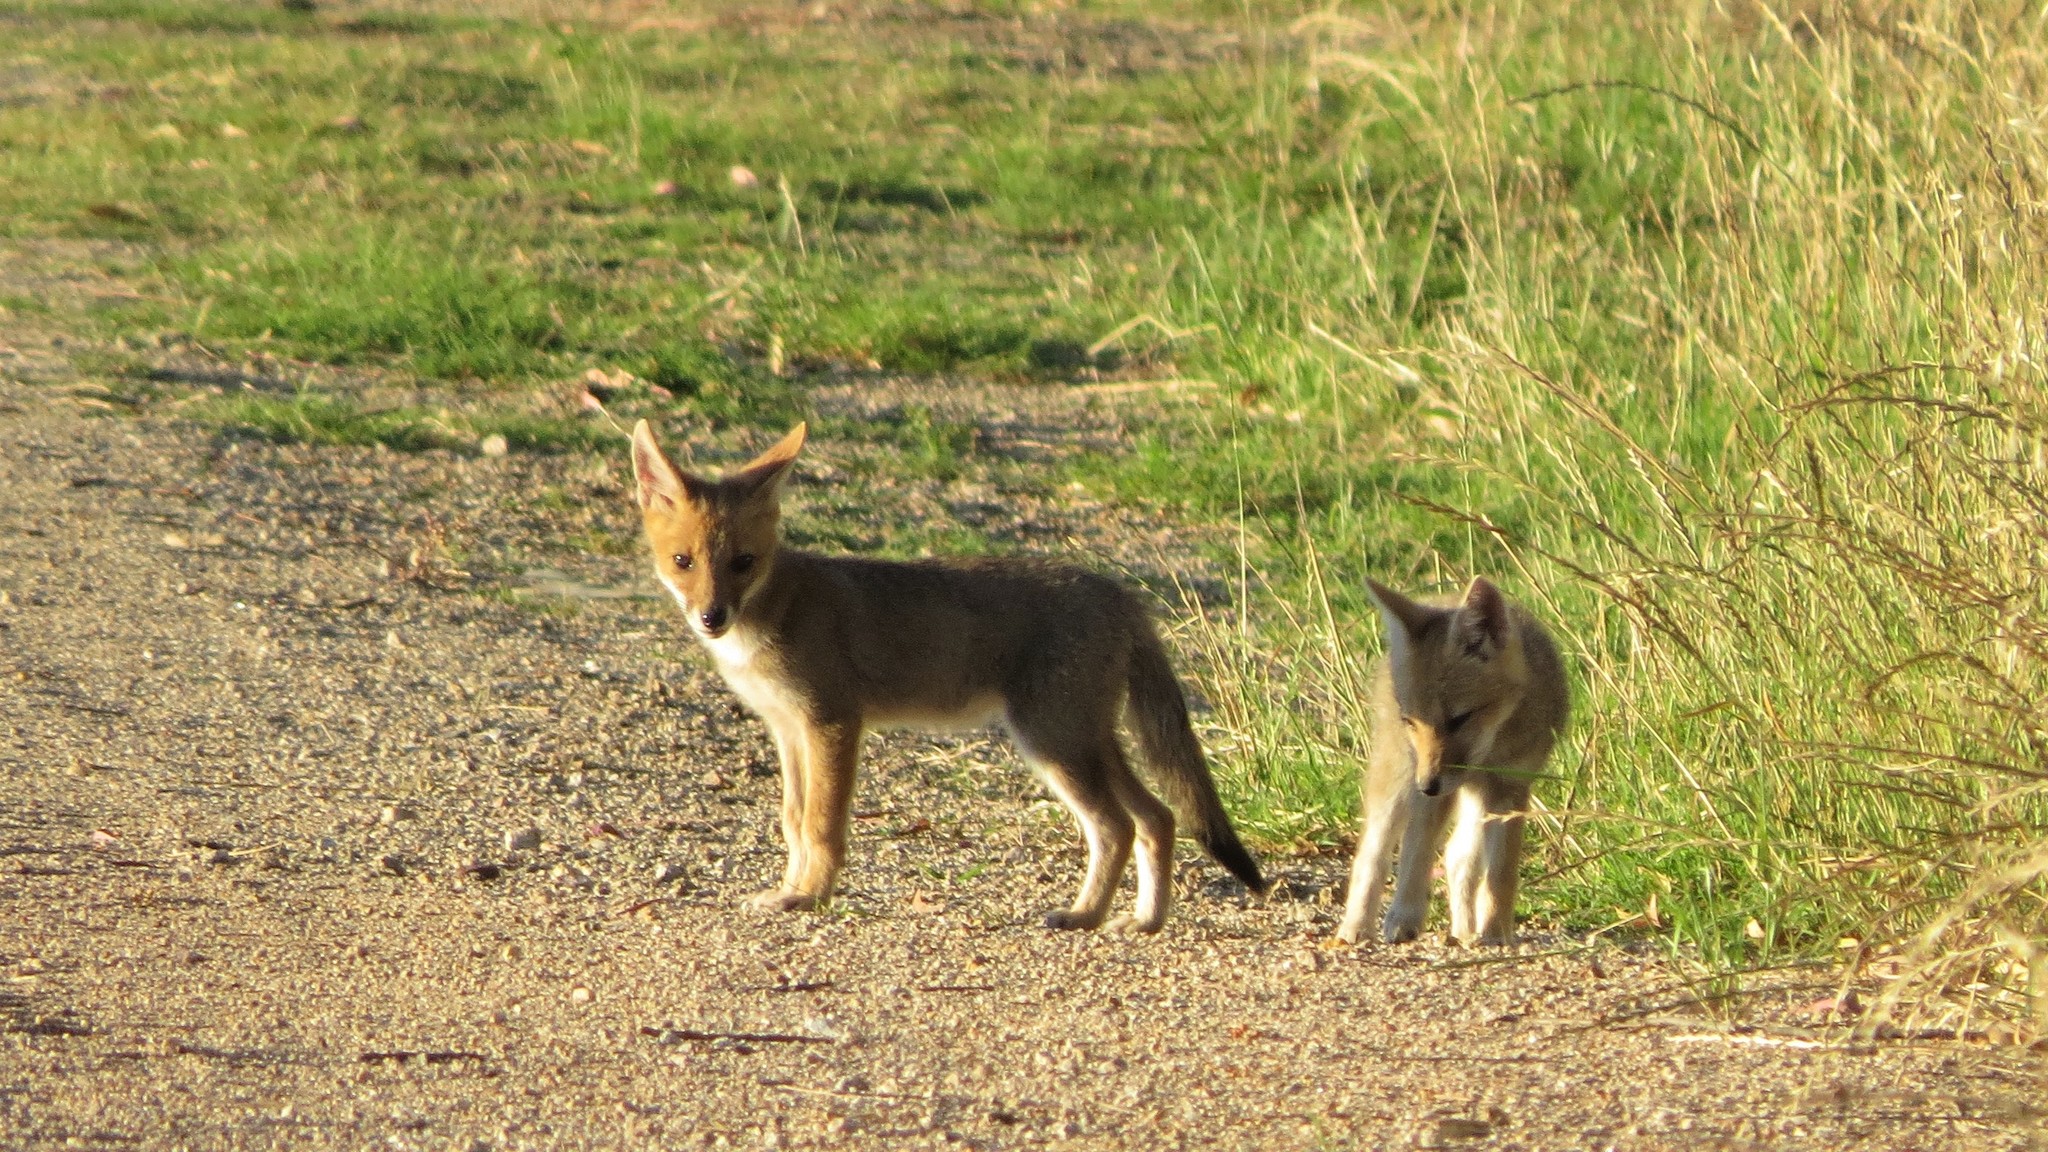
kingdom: Animalia
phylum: Chordata
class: Mammalia
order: Carnivora
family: Canidae
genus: Lycalopex
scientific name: Lycalopex gymnocercus
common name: Pampas fox
